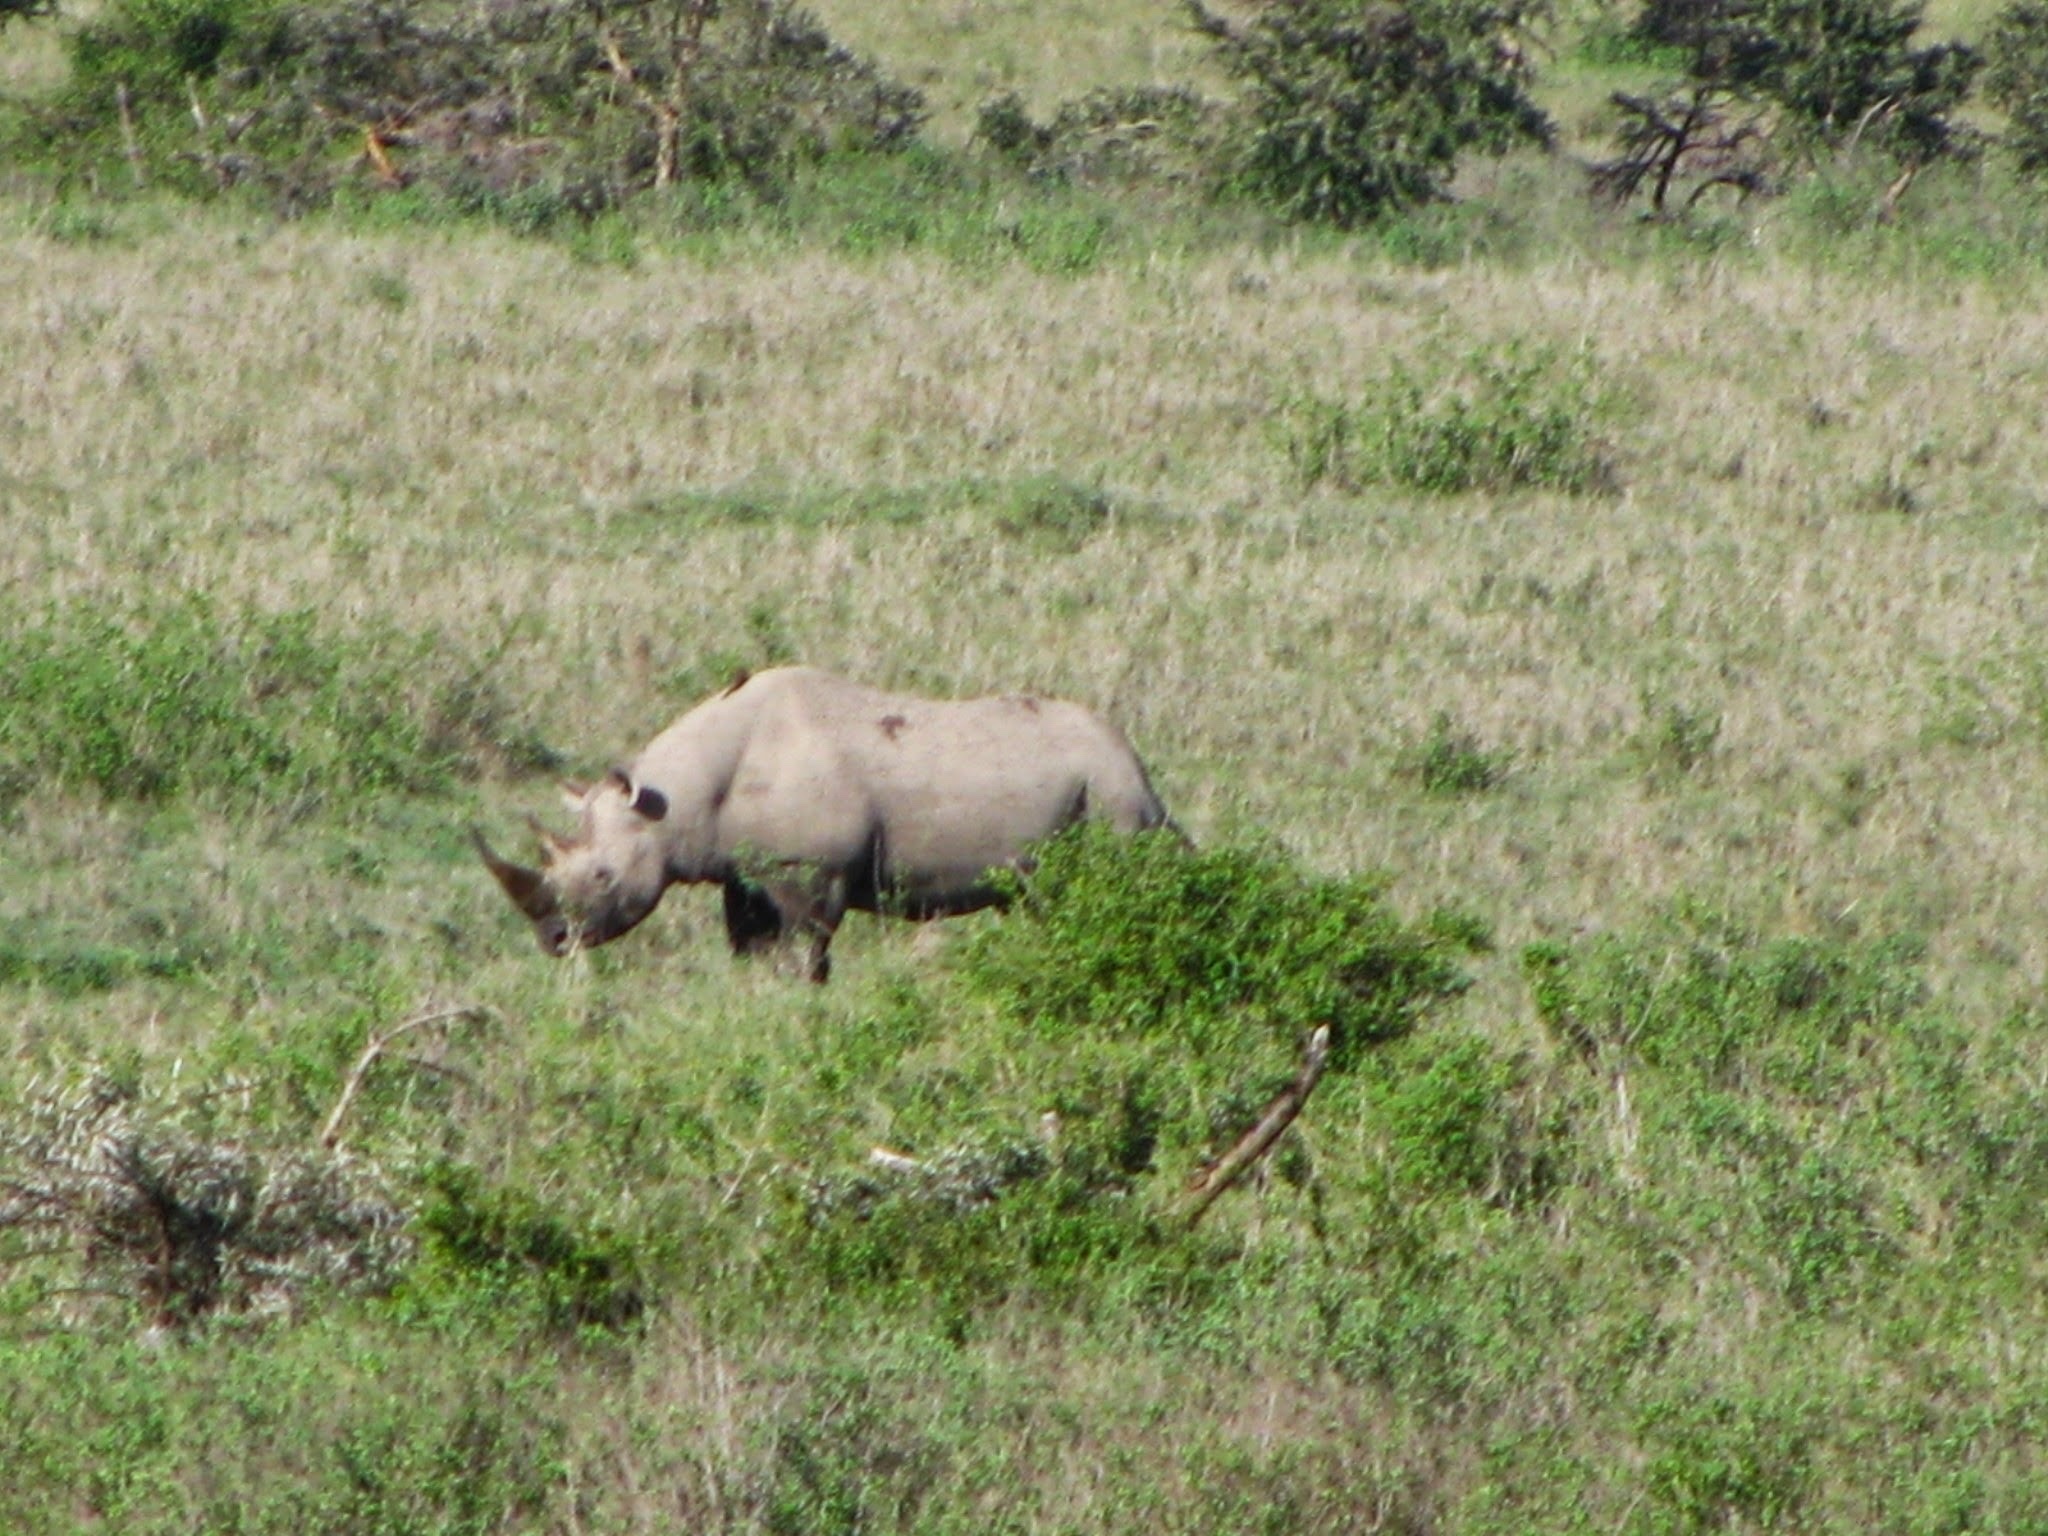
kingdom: Animalia
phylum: Chordata
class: Mammalia
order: Perissodactyla
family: Rhinocerotidae
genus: Diceros
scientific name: Diceros bicornis
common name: Black rhinoceros
